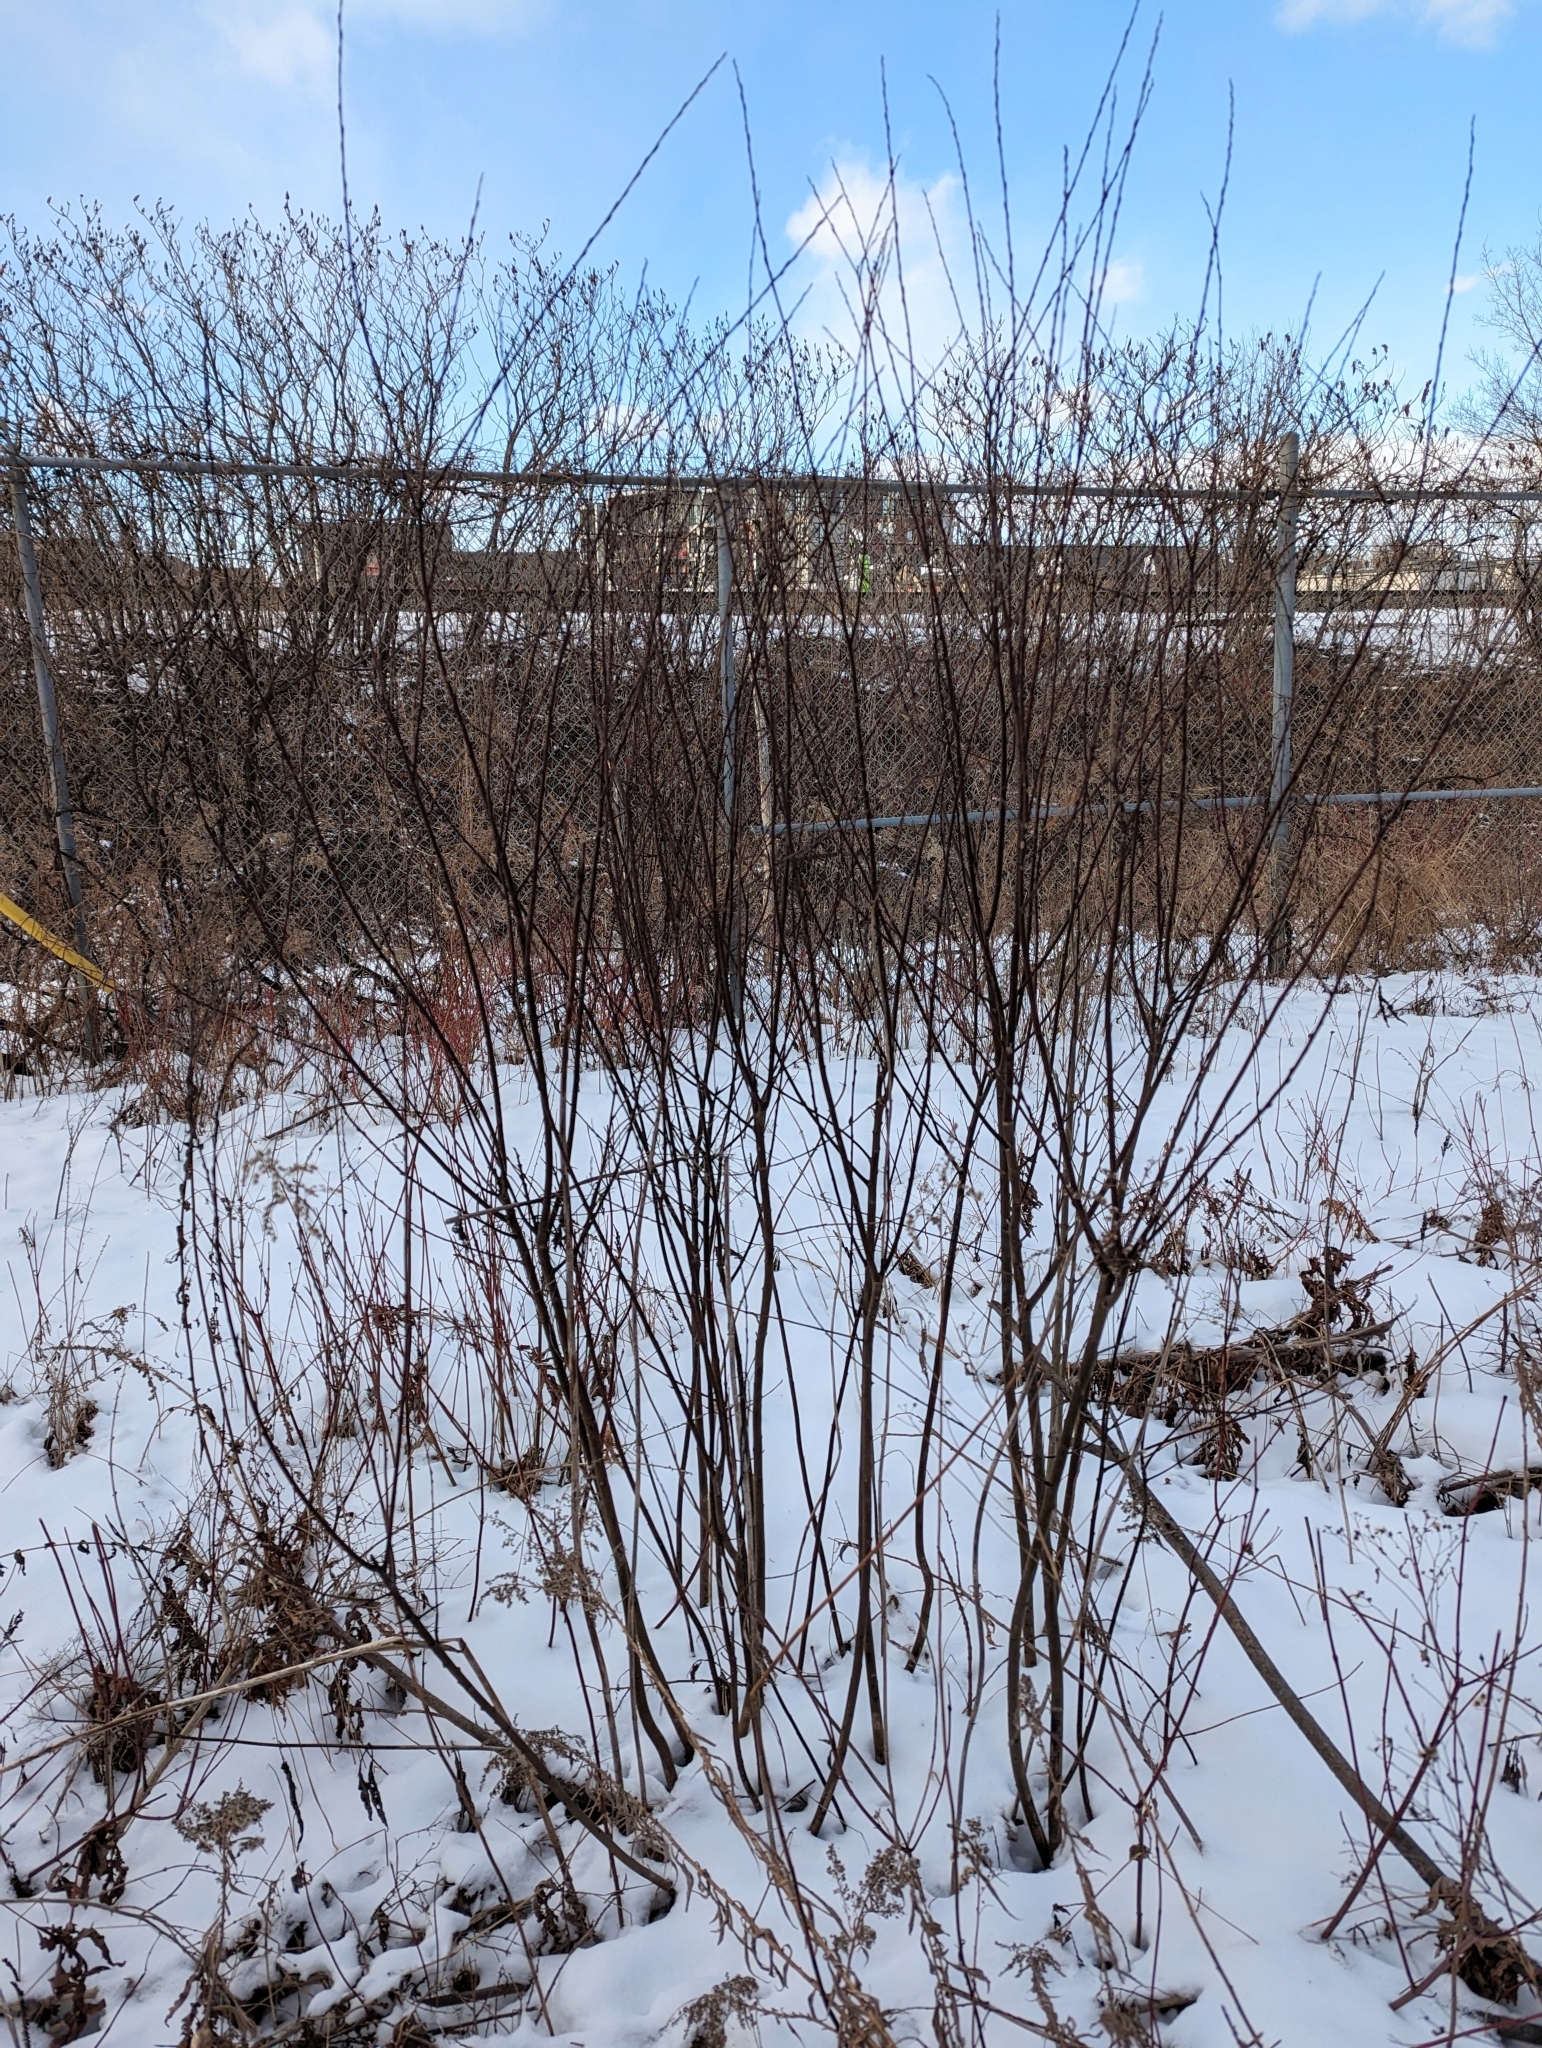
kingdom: Plantae
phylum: Tracheophyta
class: Magnoliopsida
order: Malpighiales
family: Salicaceae
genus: Salix
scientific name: Salix
